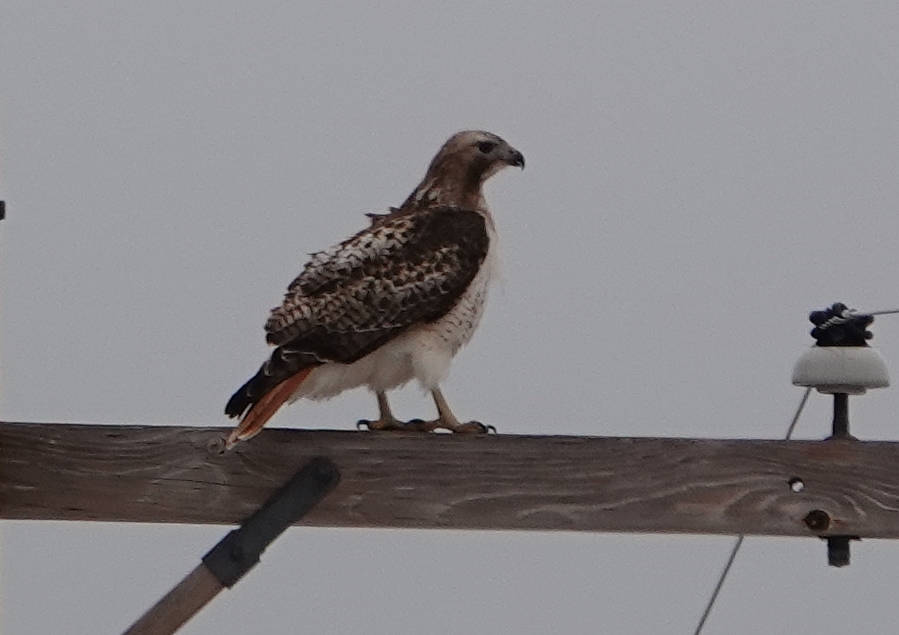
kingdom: Animalia
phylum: Chordata
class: Aves
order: Accipitriformes
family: Accipitridae
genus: Buteo
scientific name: Buteo jamaicensis
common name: Red-tailed hawk
